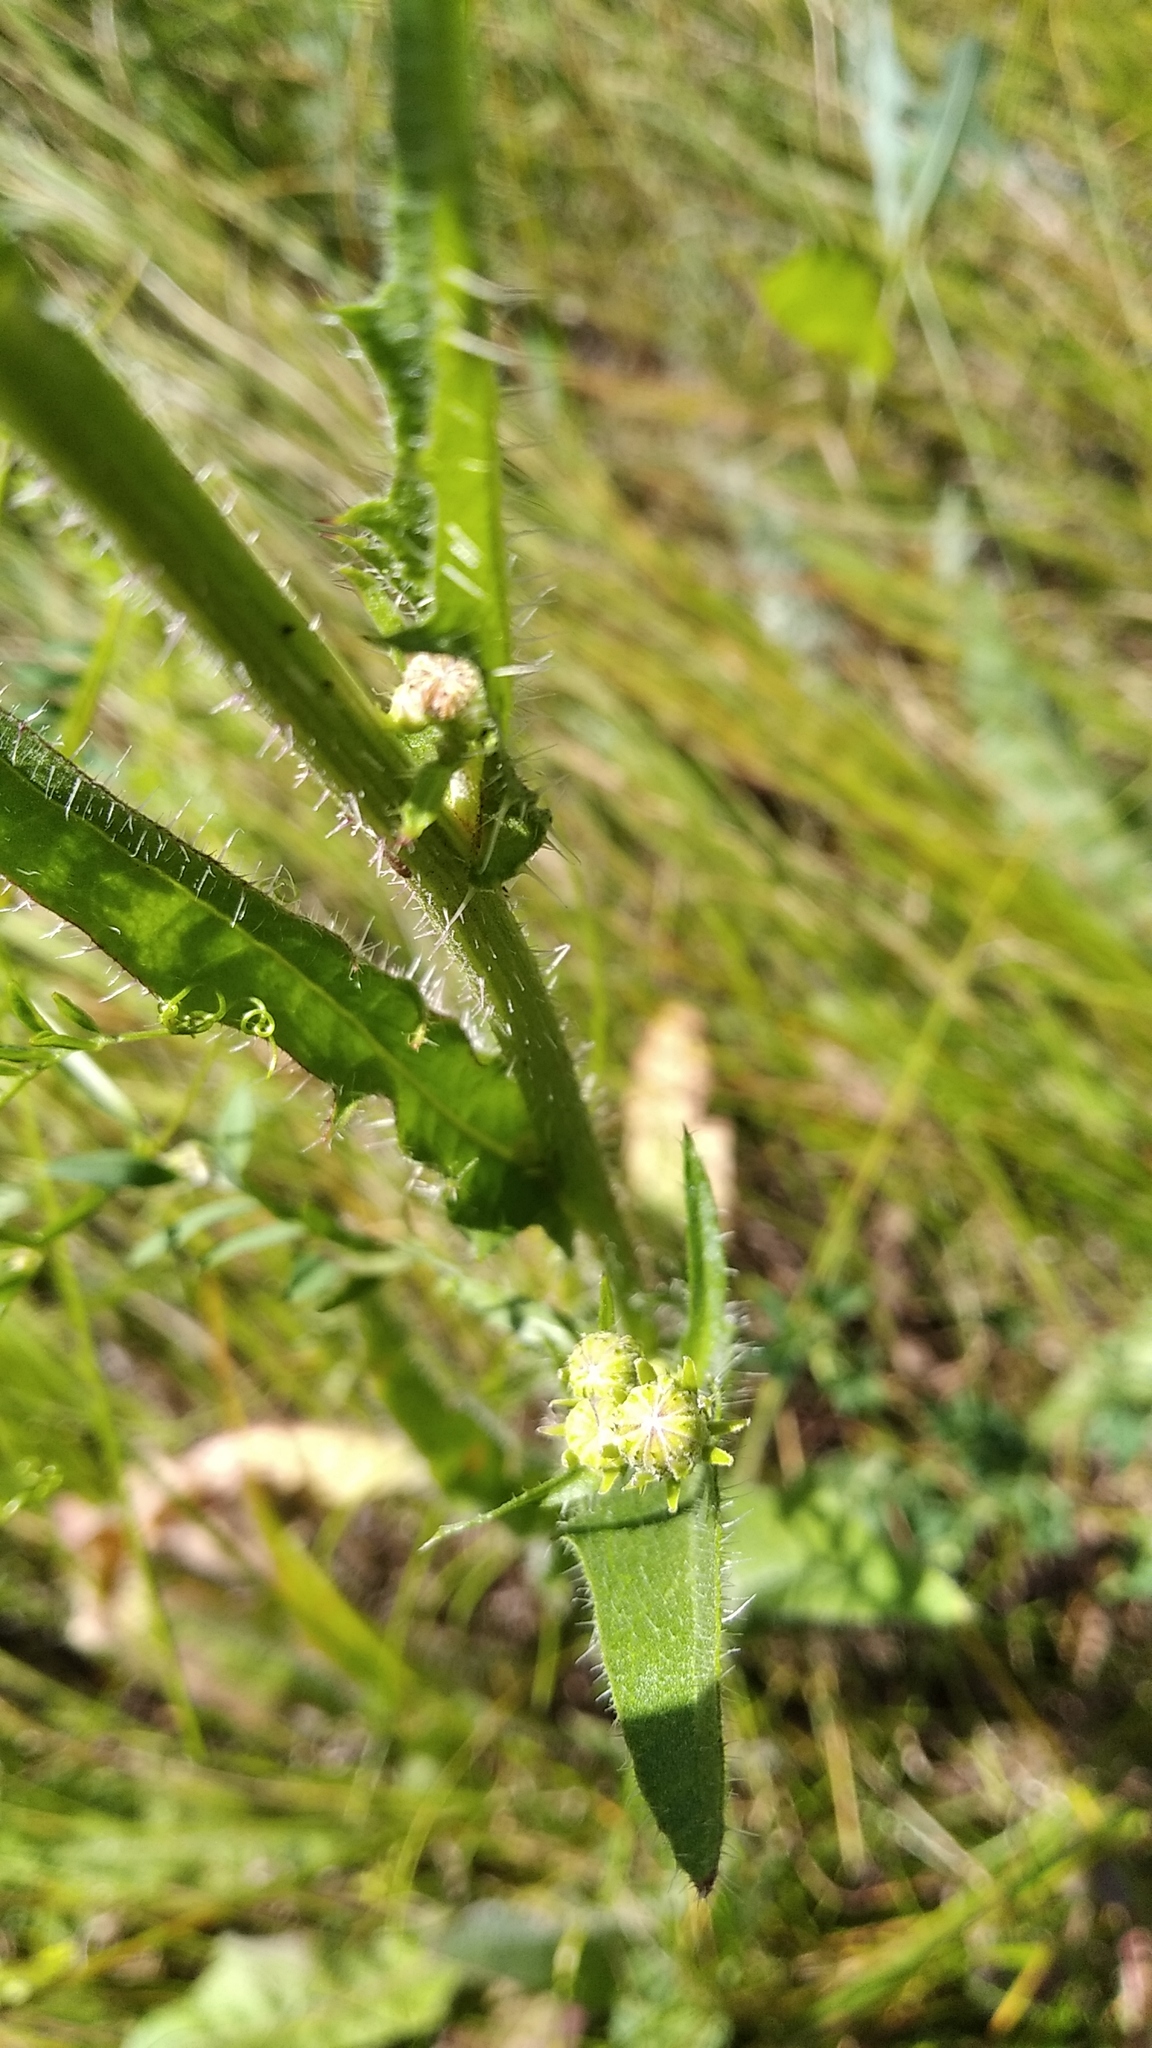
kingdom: Plantae
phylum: Tracheophyta
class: Magnoliopsida
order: Asterales
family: Asteraceae
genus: Picris
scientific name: Picris hieracioides
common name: Hawkweed oxtongue
